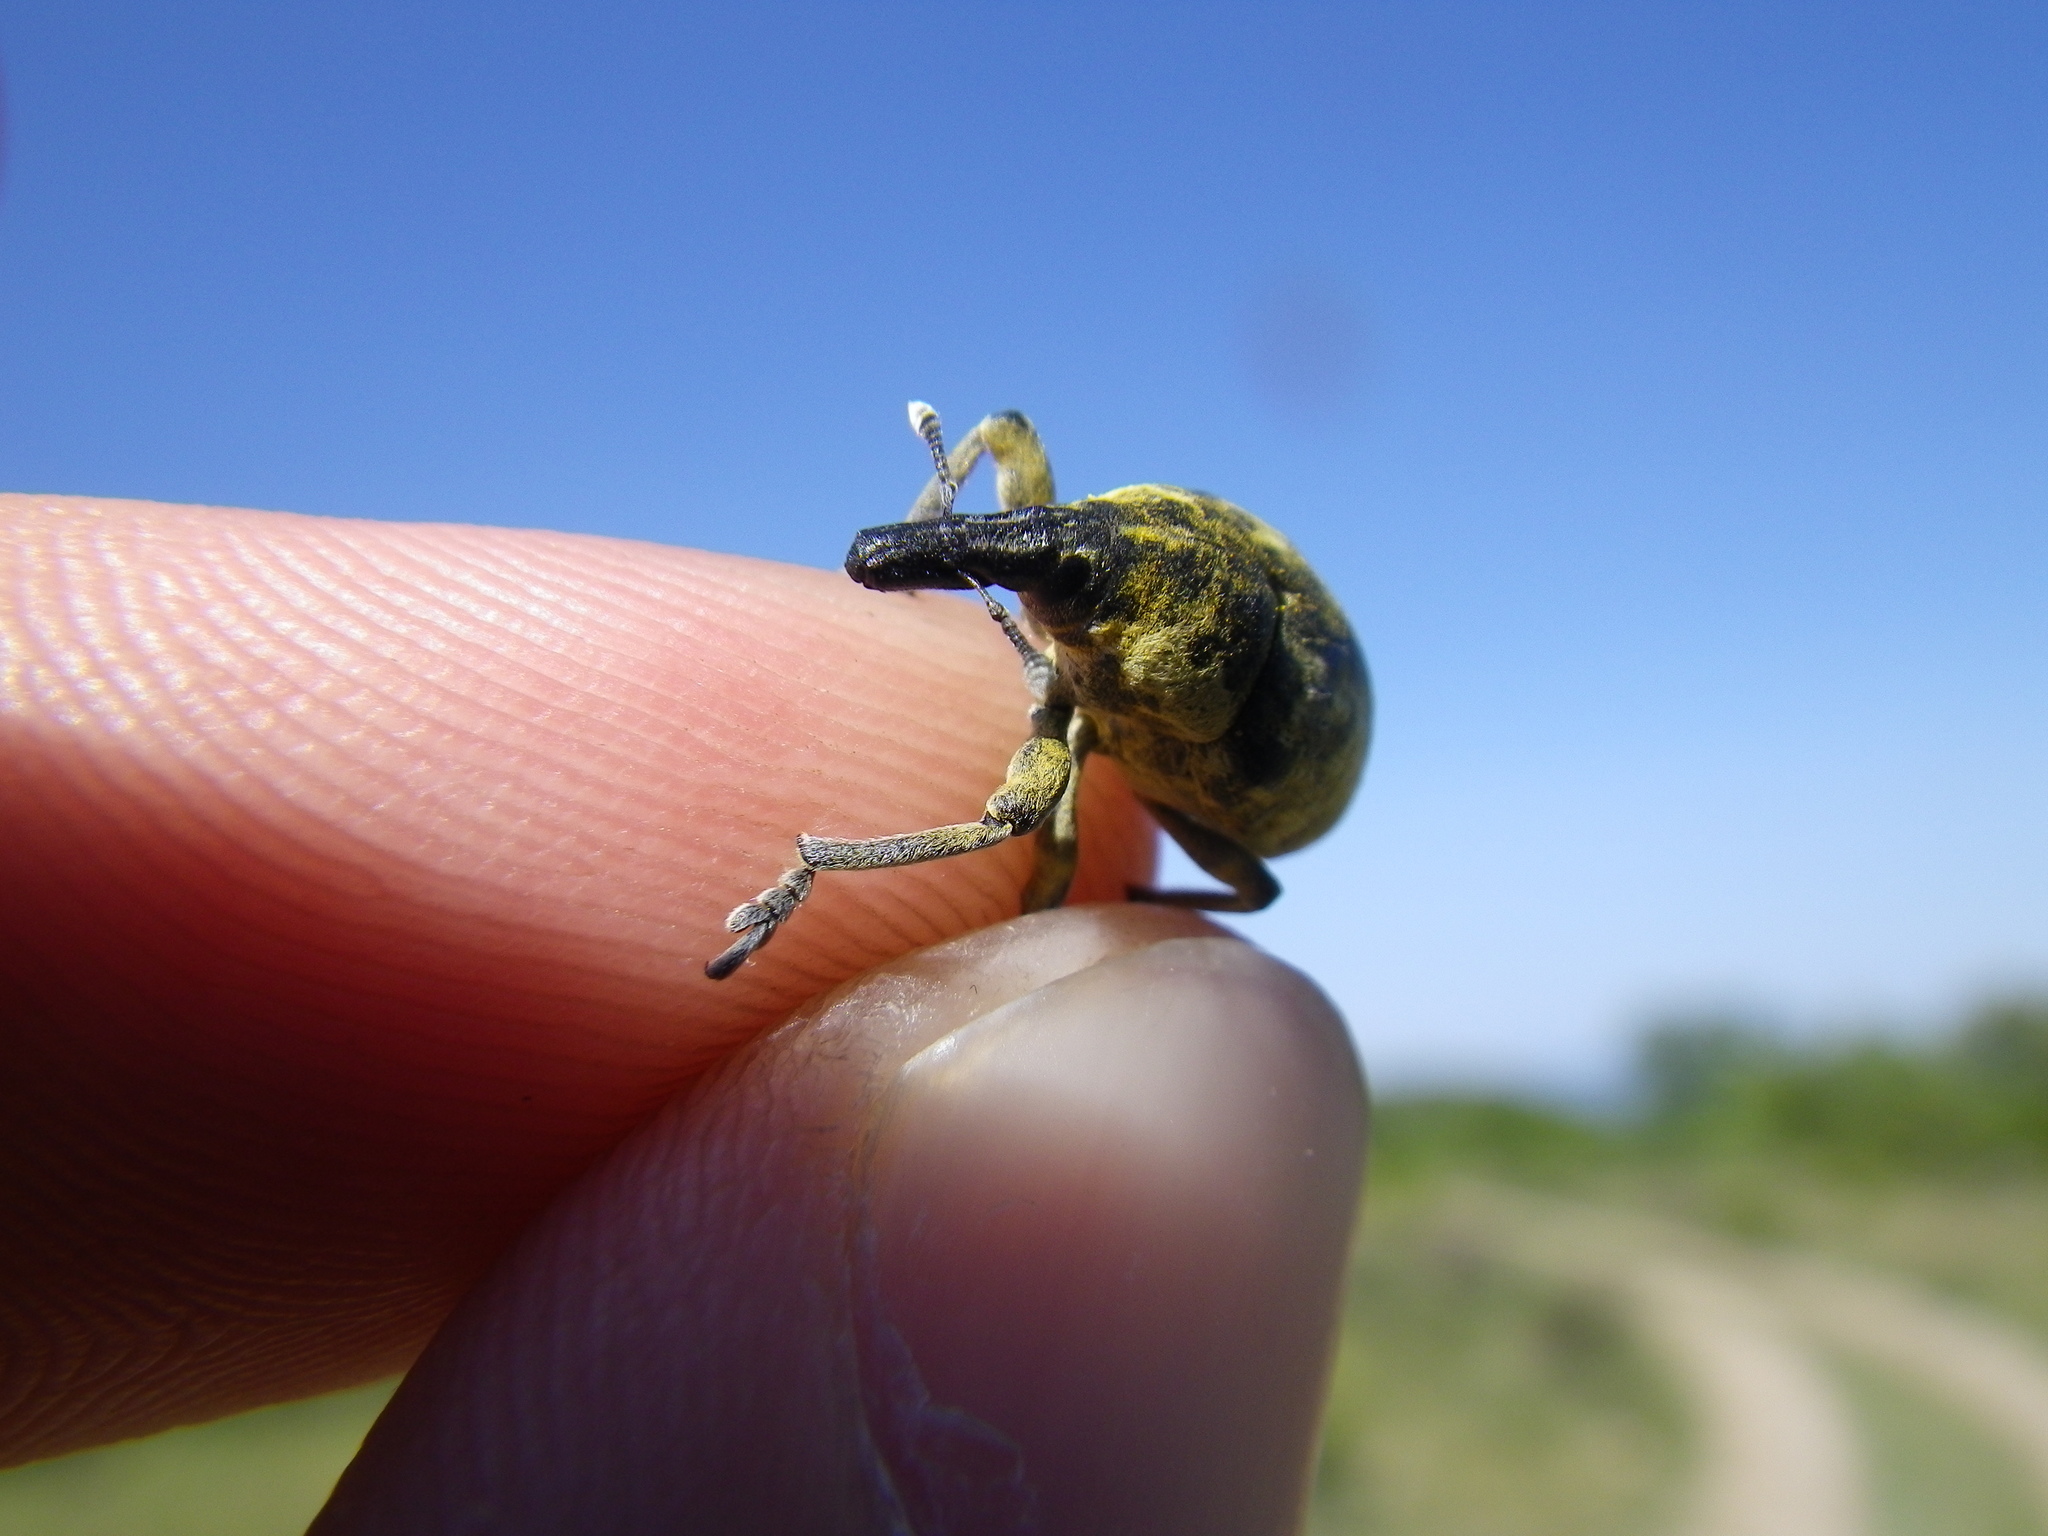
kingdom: Animalia
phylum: Arthropoda
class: Insecta
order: Coleoptera
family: Curculionidae
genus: Larinus
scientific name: Larinus vulpes
